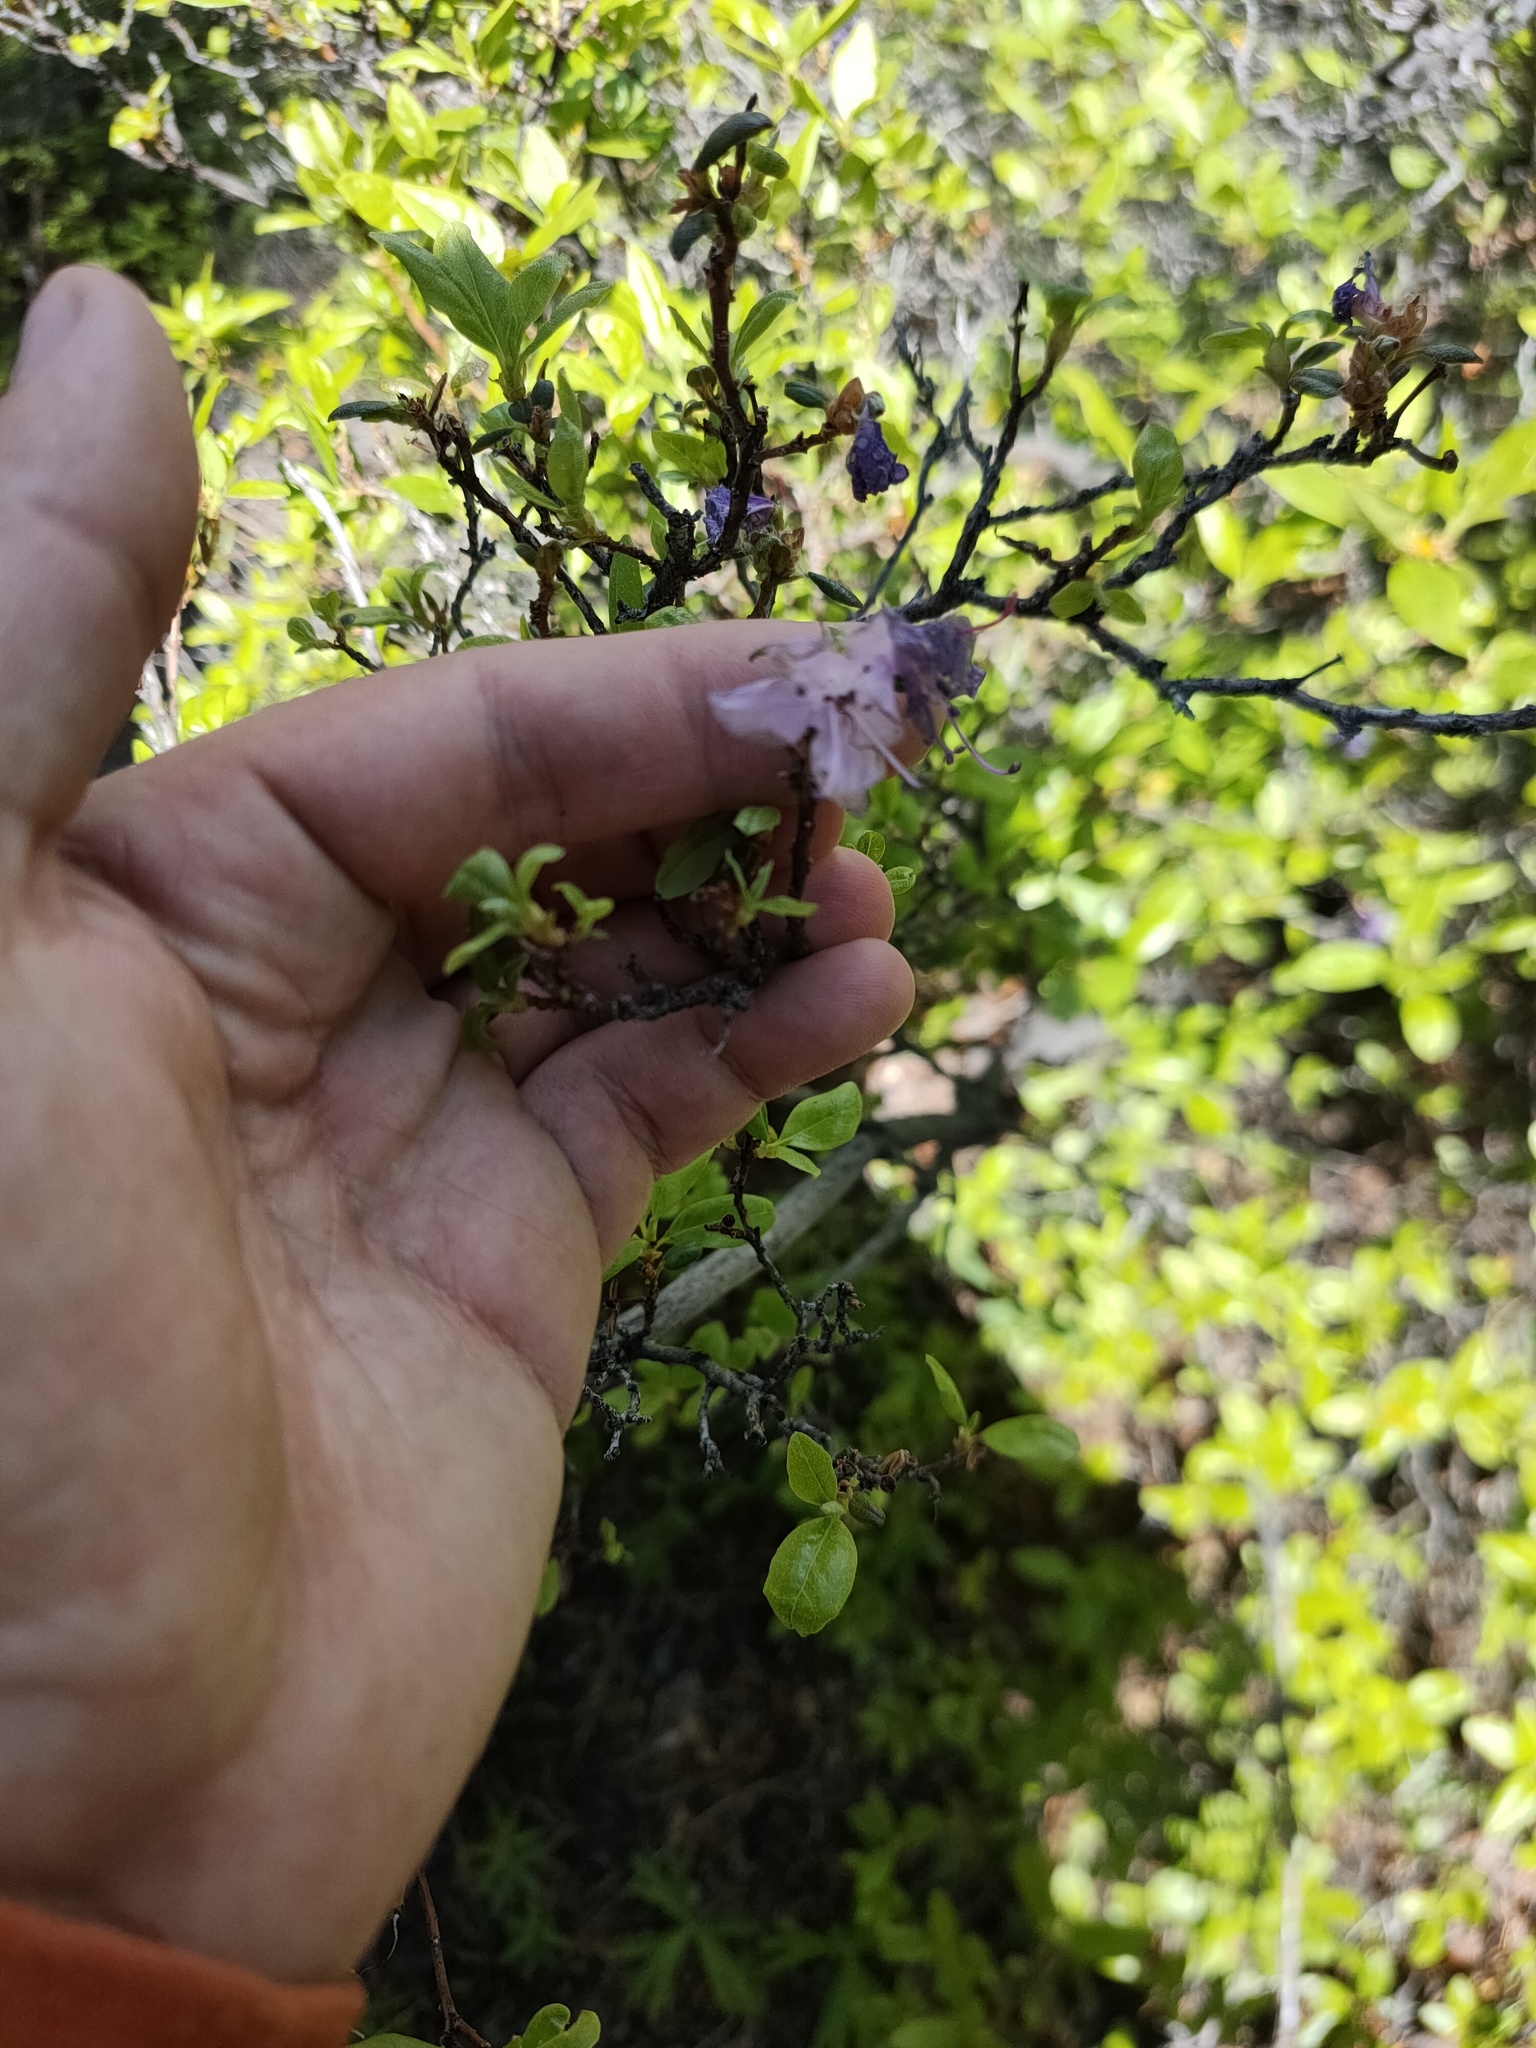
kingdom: Plantae
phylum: Tracheophyta
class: Magnoliopsida
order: Ericales
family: Ericaceae
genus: Rhododendron
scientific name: Rhododendron dauricum
